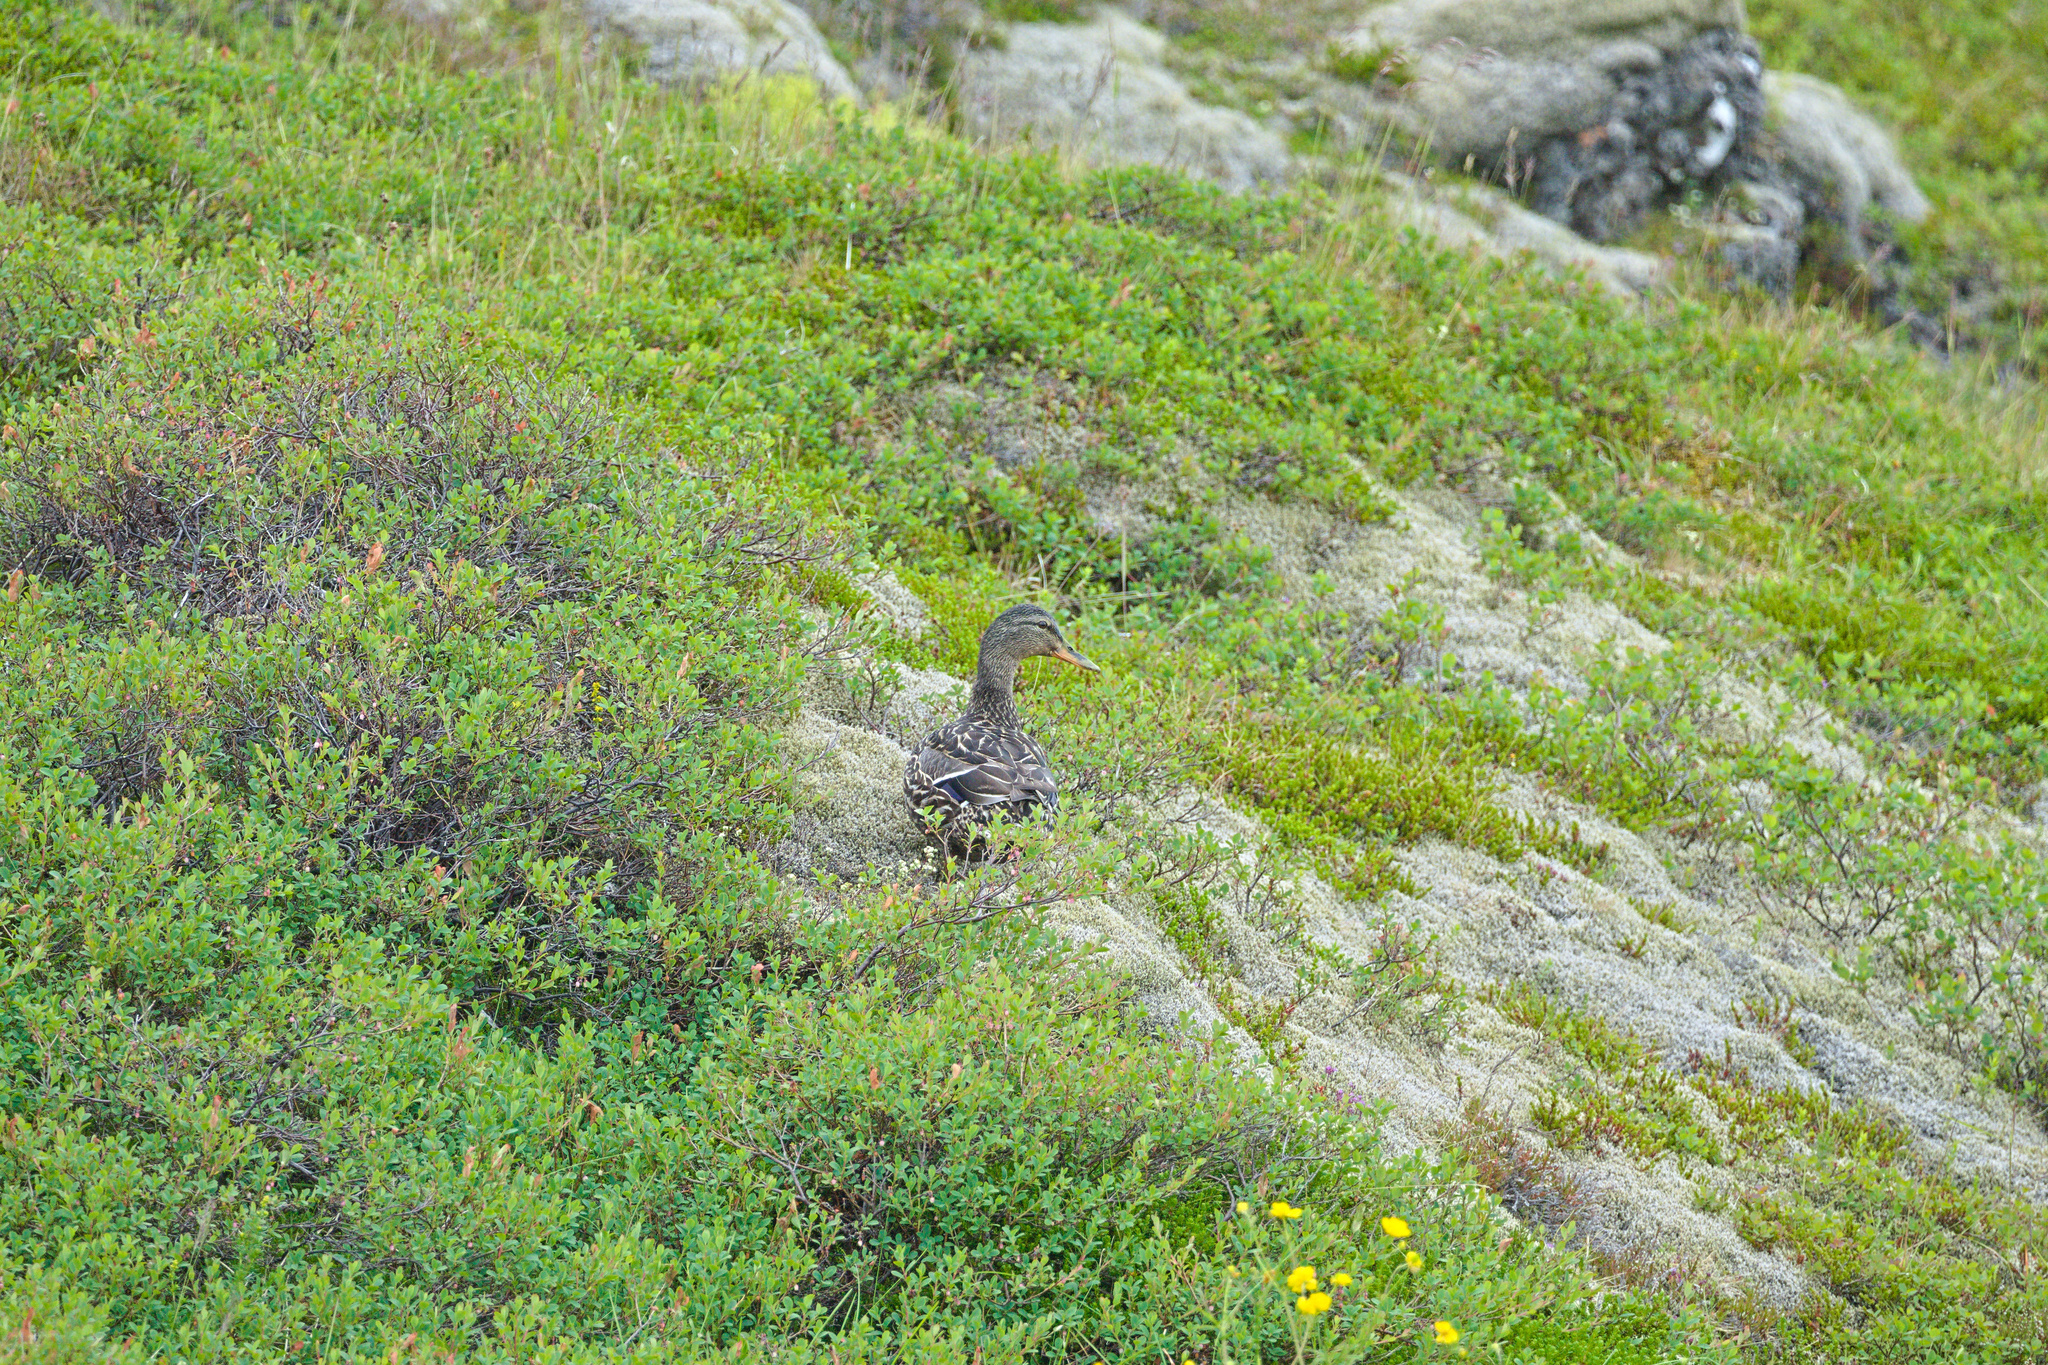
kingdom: Animalia
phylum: Chordata
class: Aves
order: Anseriformes
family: Anatidae
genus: Anas
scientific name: Anas platyrhynchos
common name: Mallard
